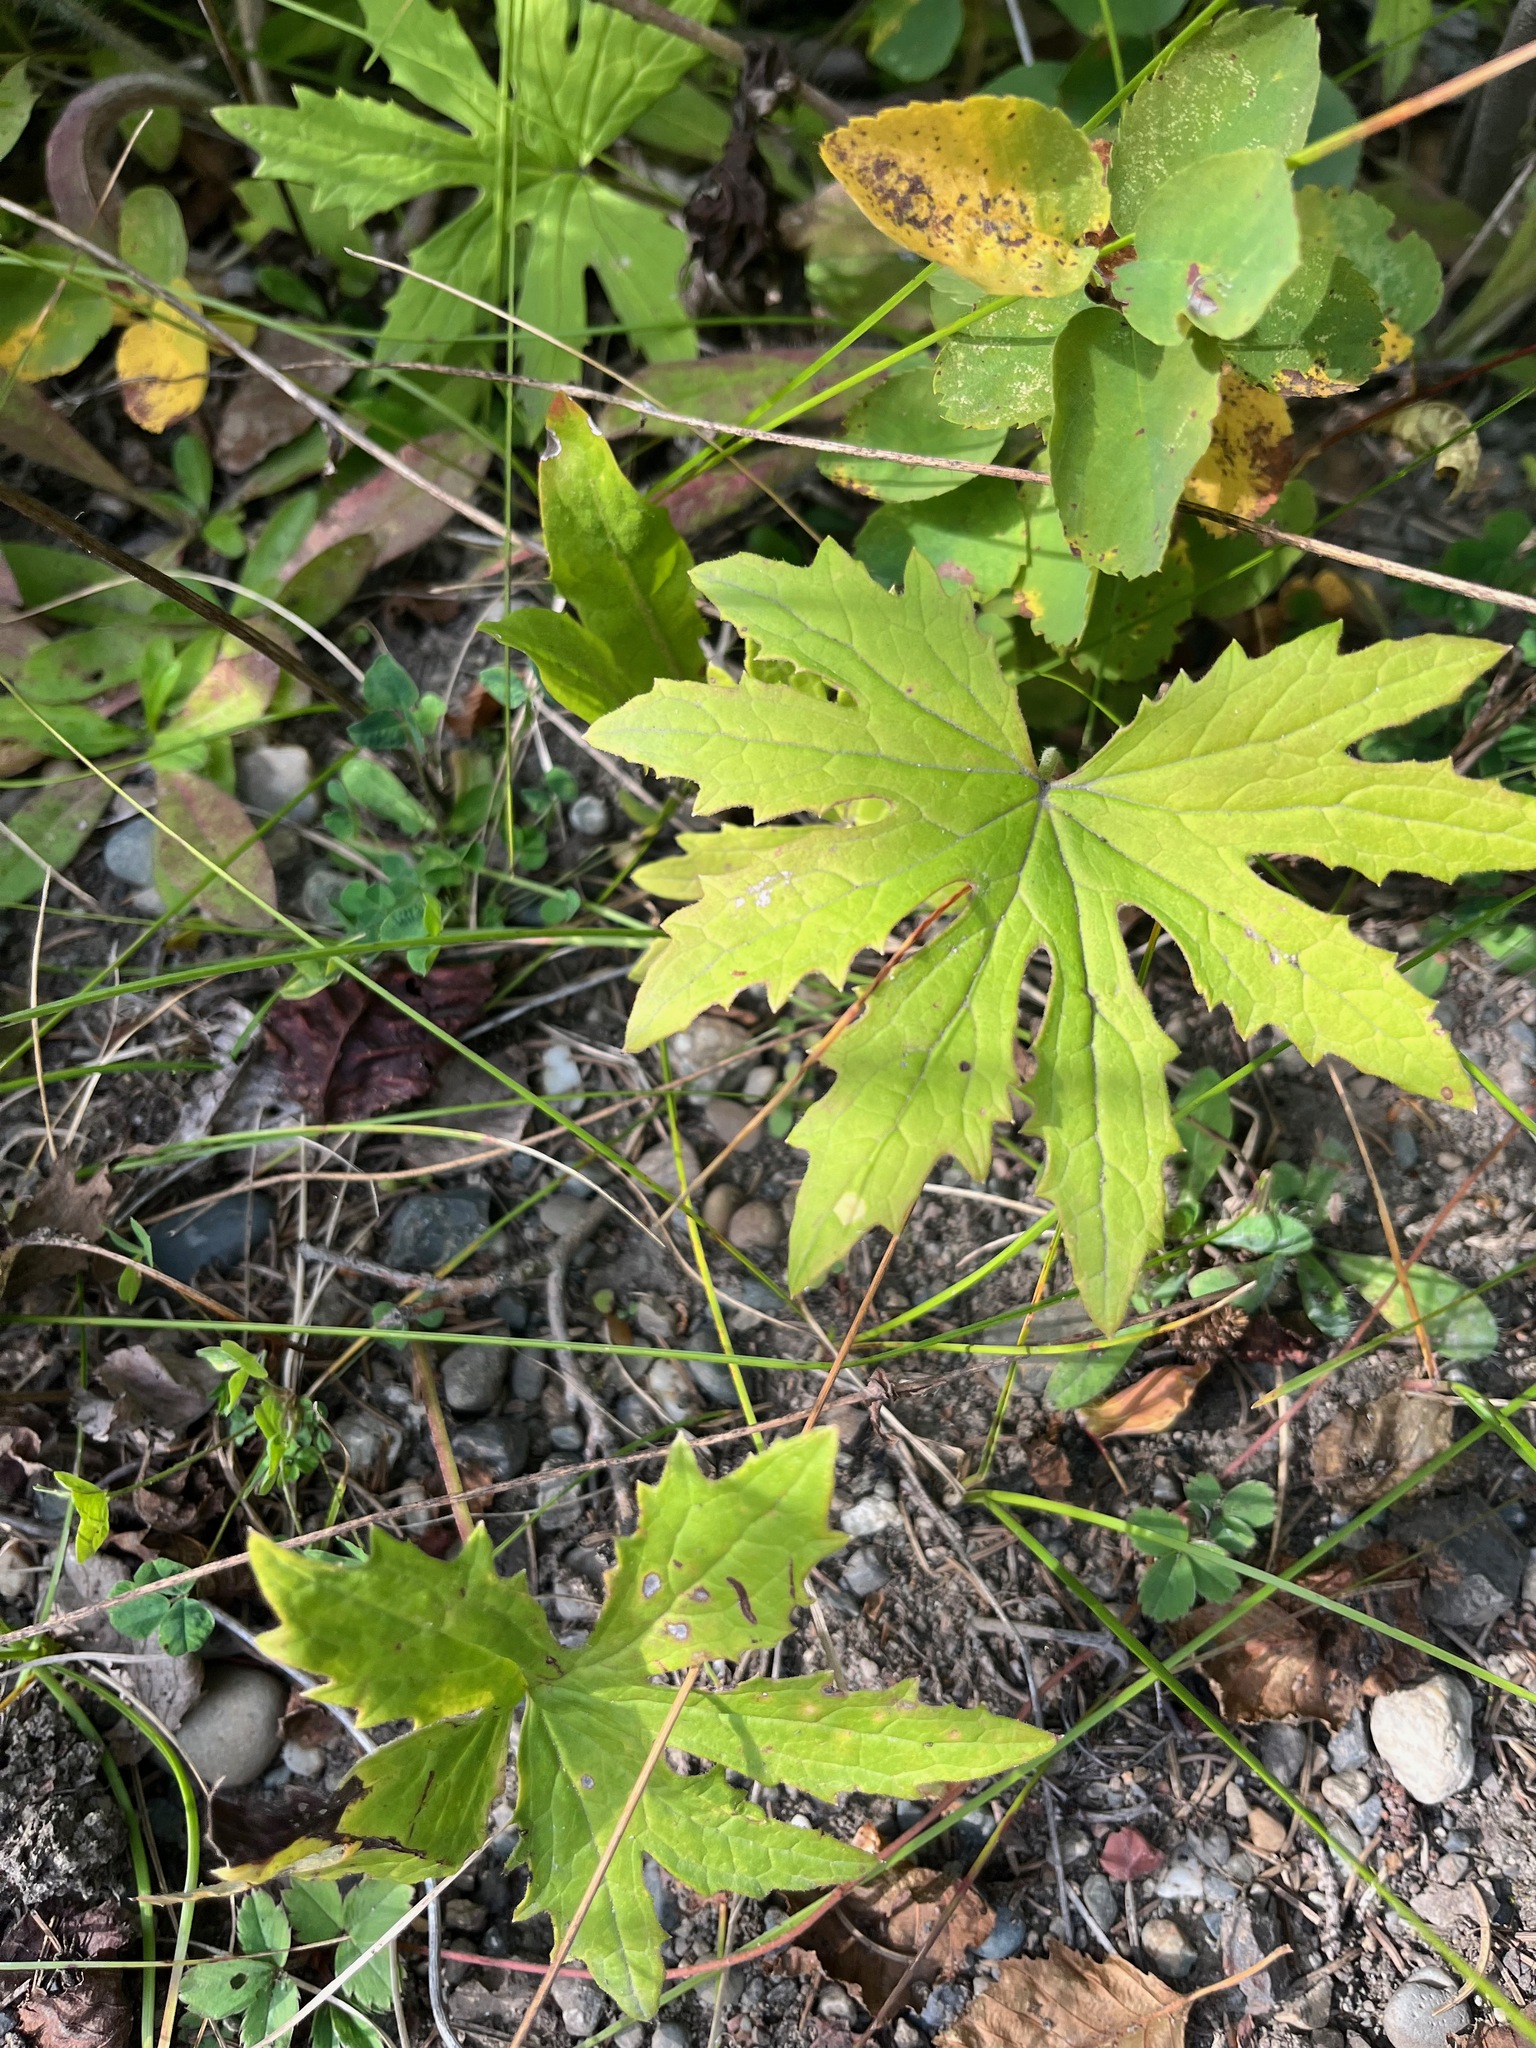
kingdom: Plantae
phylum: Tracheophyta
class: Magnoliopsida
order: Asterales
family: Asteraceae
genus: Petasites
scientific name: Petasites frigidus
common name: Arctic butterbur
